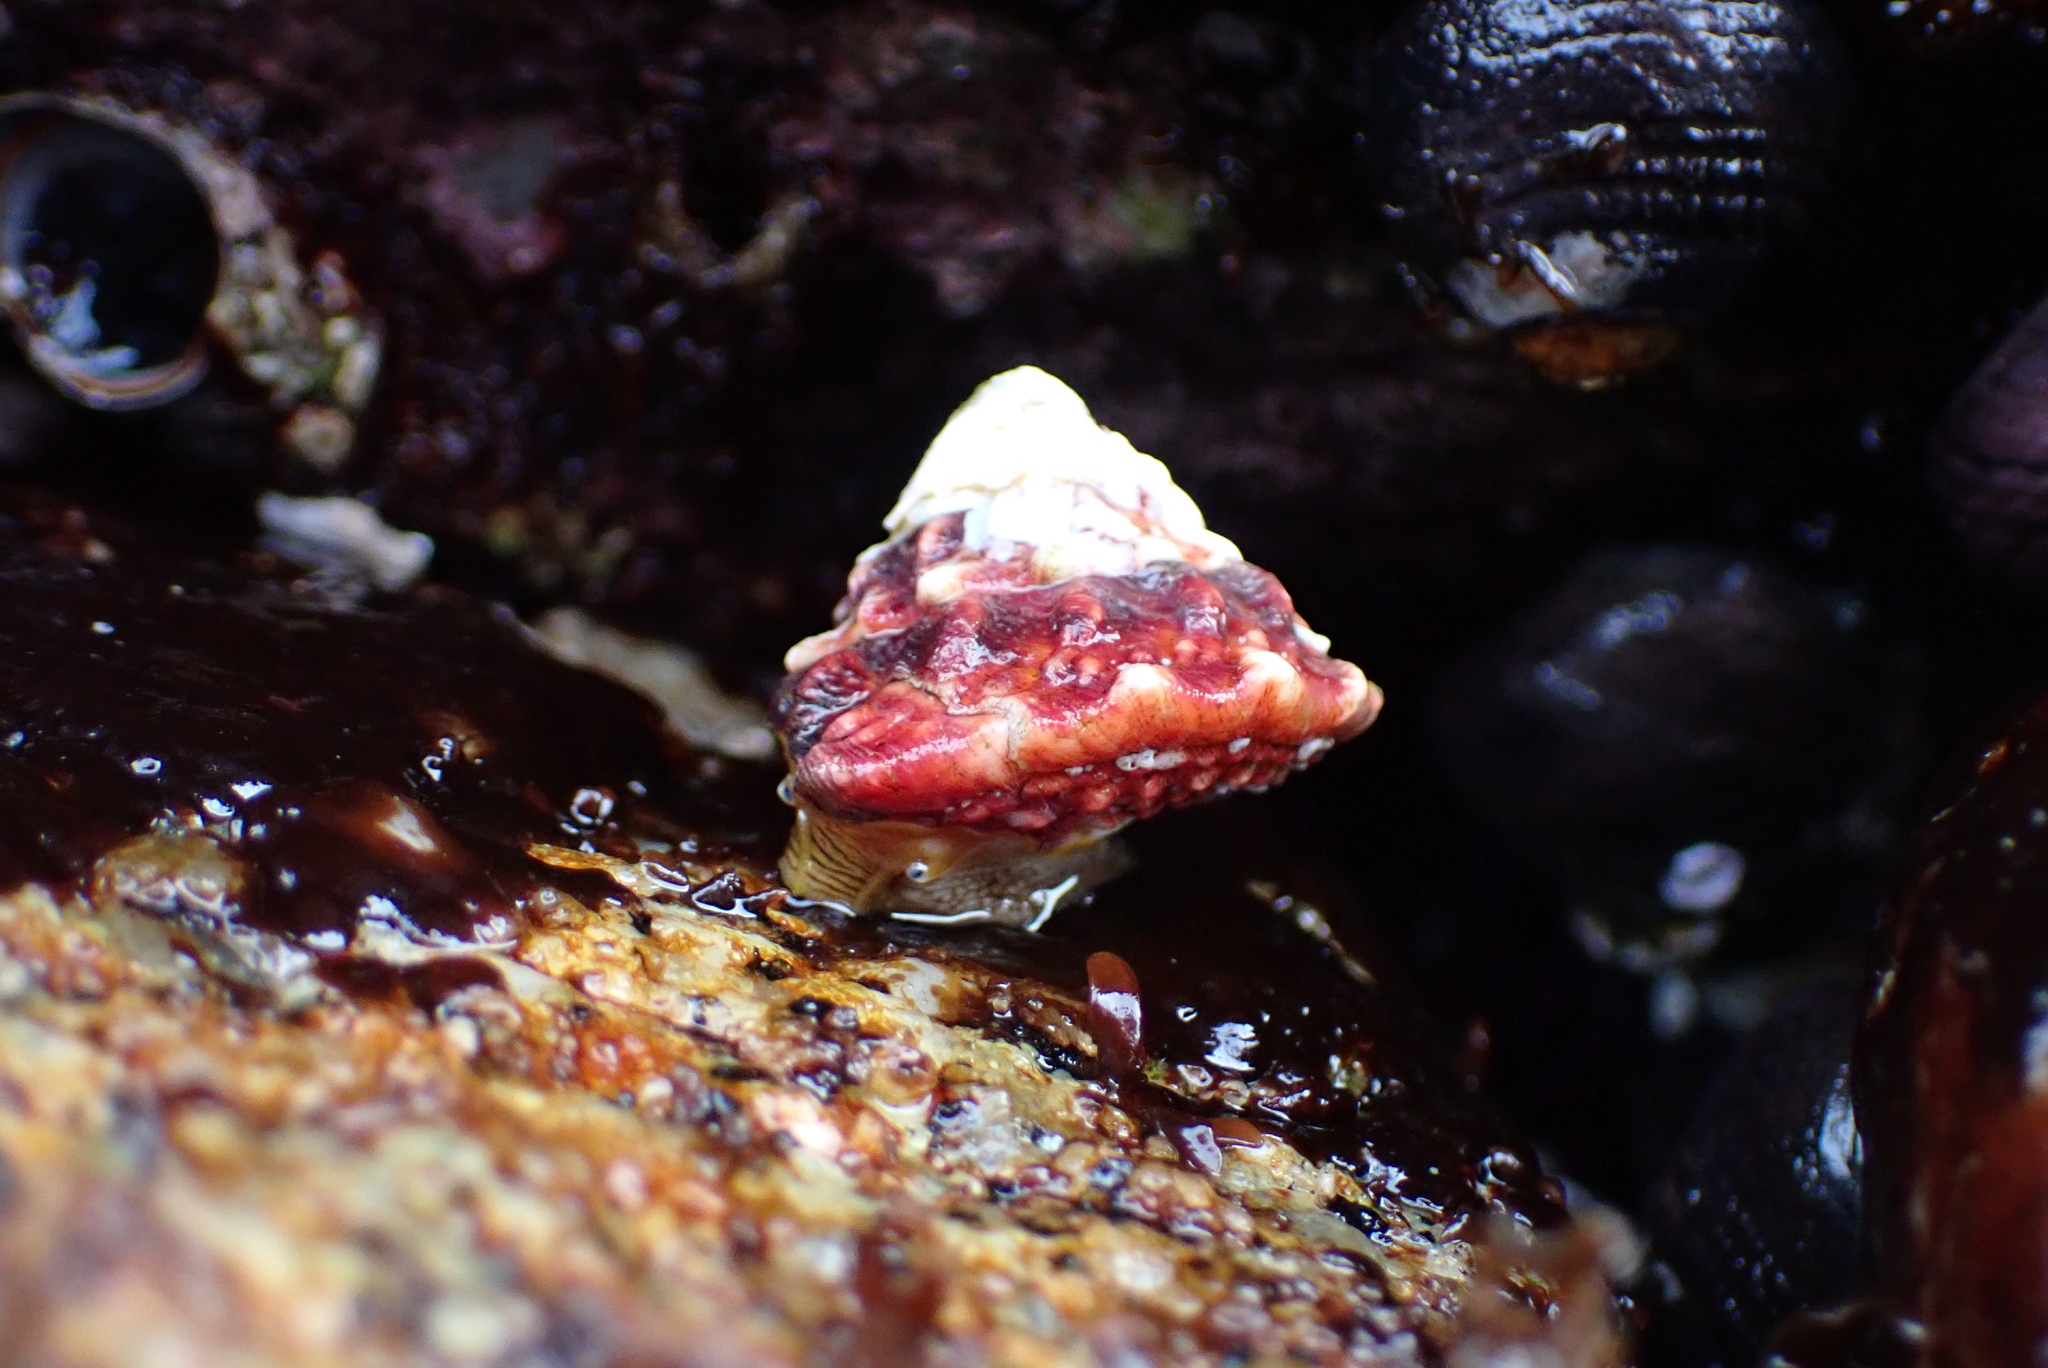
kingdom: Animalia
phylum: Mollusca
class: Gastropoda
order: Trochida
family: Turbinidae
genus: Pomaulax
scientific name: Pomaulax gibberosus
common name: Red turban
